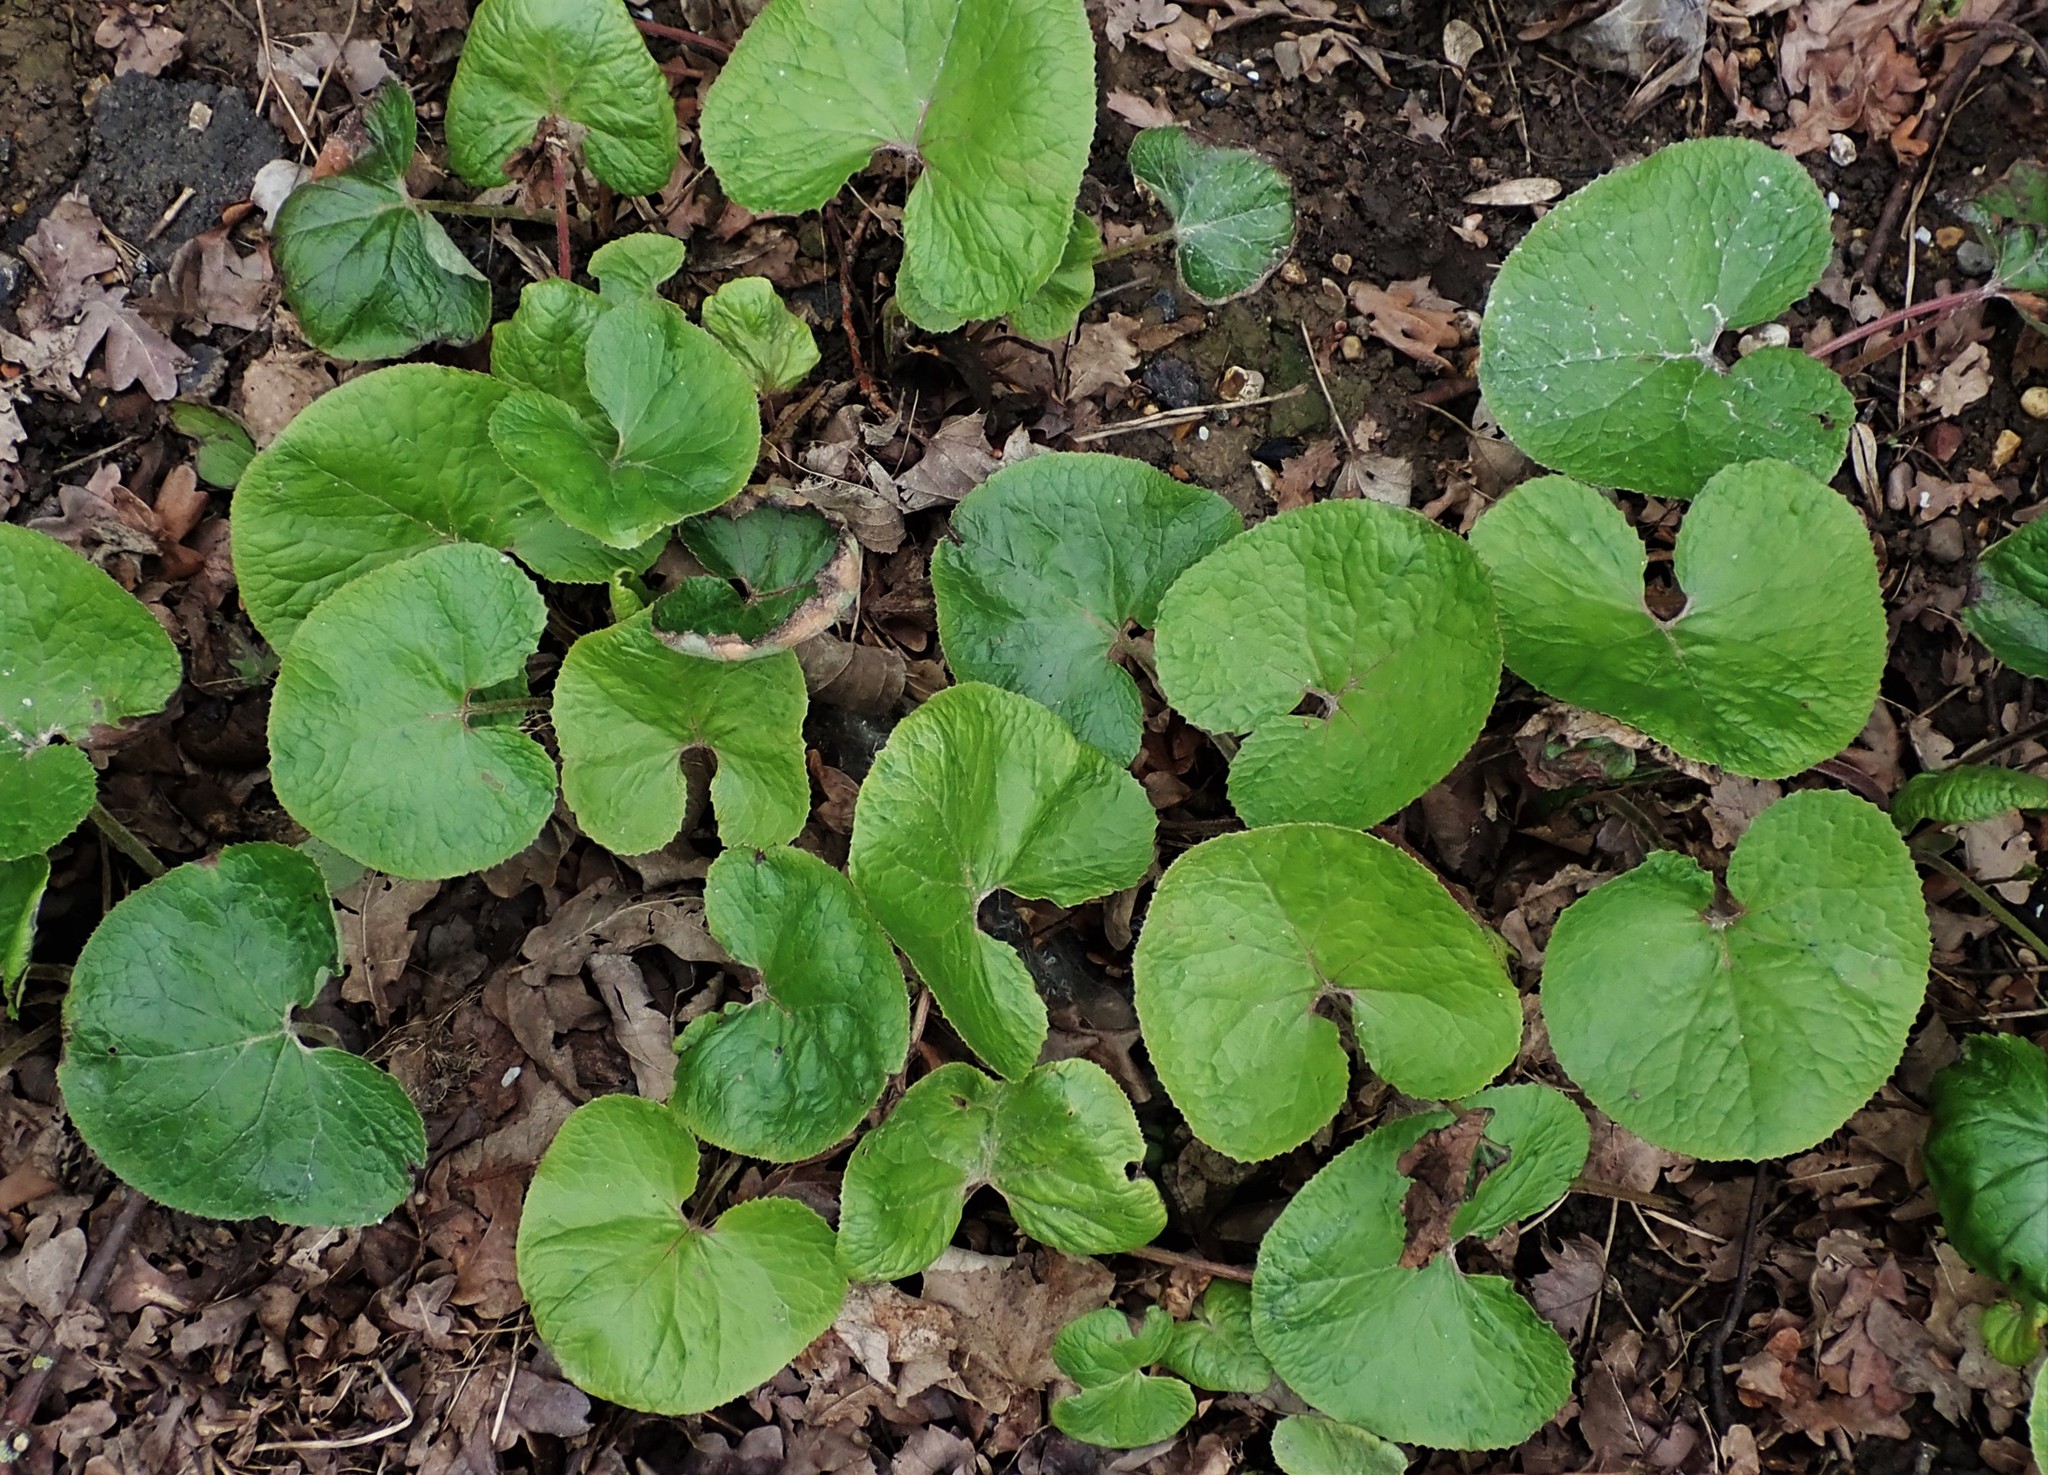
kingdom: Plantae
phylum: Tracheophyta
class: Magnoliopsida
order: Asterales
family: Asteraceae
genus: Petasites
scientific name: Petasites pyrenaicus
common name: Winter heliotrope
